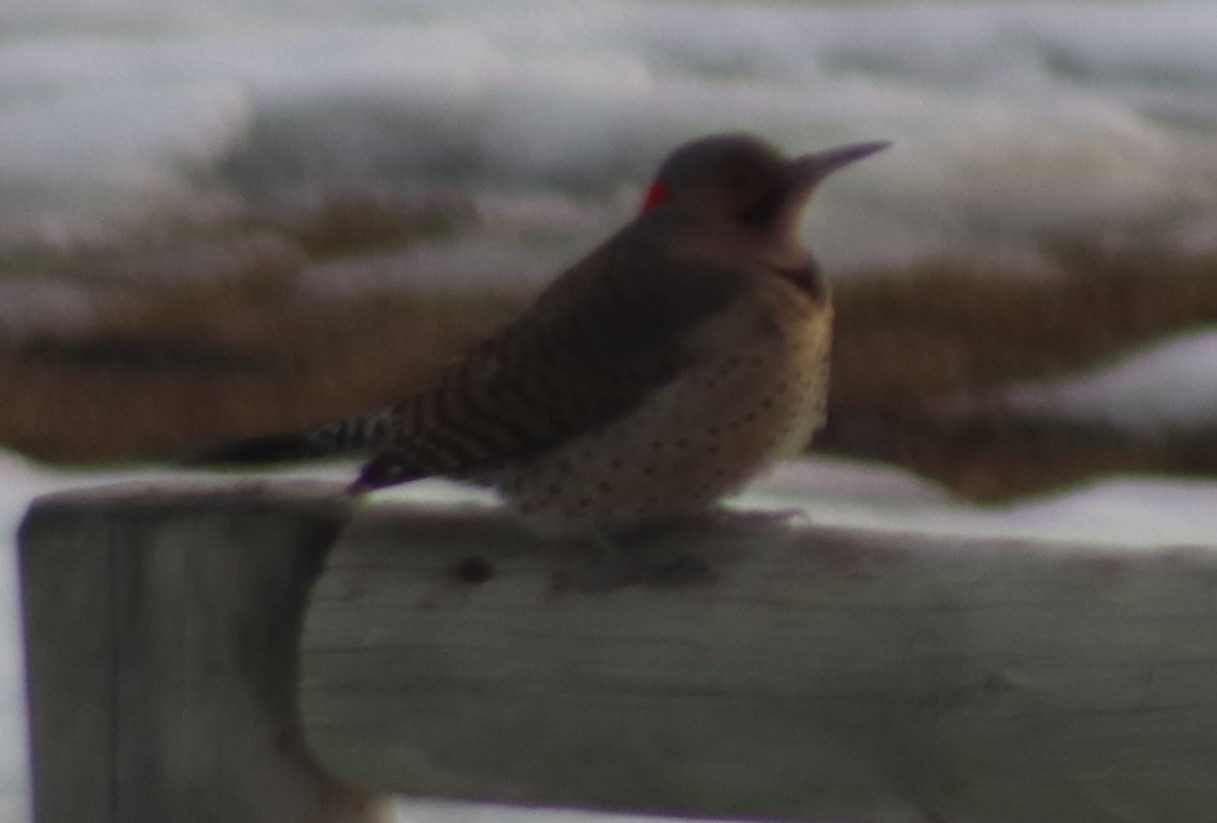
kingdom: Animalia
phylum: Chordata
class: Aves
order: Piciformes
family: Picidae
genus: Colaptes
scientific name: Colaptes auratus
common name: Northern flicker
